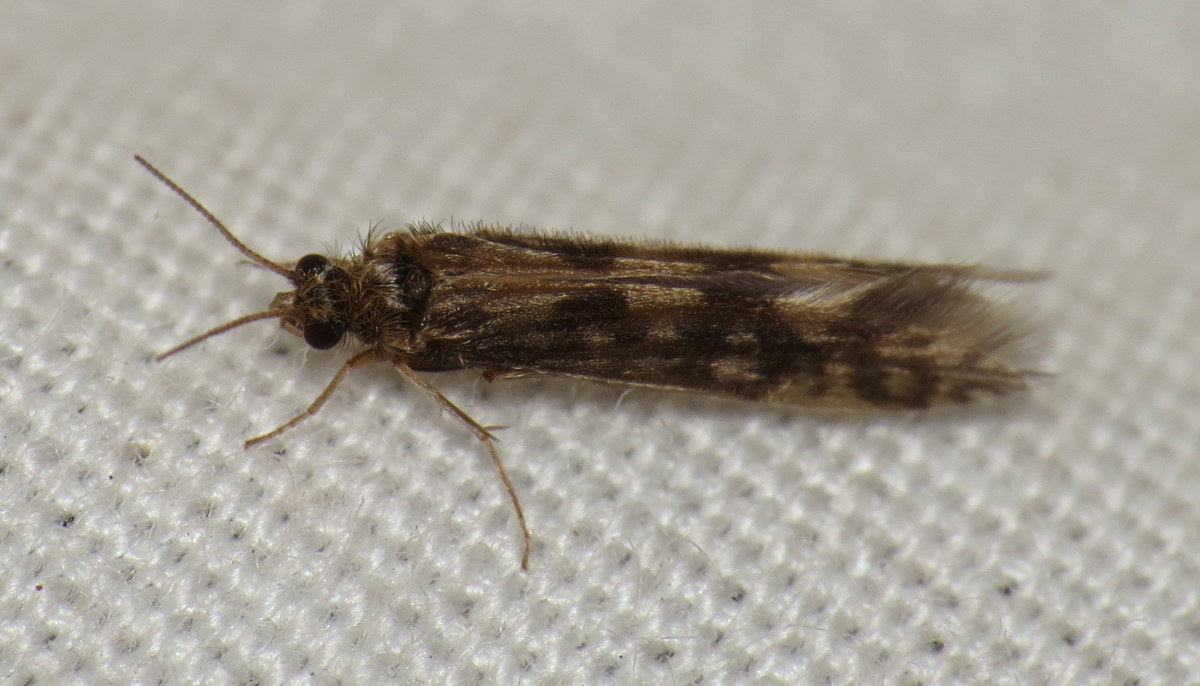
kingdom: Animalia
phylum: Arthropoda
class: Insecta
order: Trichoptera
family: Hydroptilidae
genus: Agraylea
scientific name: Agraylea multipunctata
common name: Salt and pepper microcaddisfly
